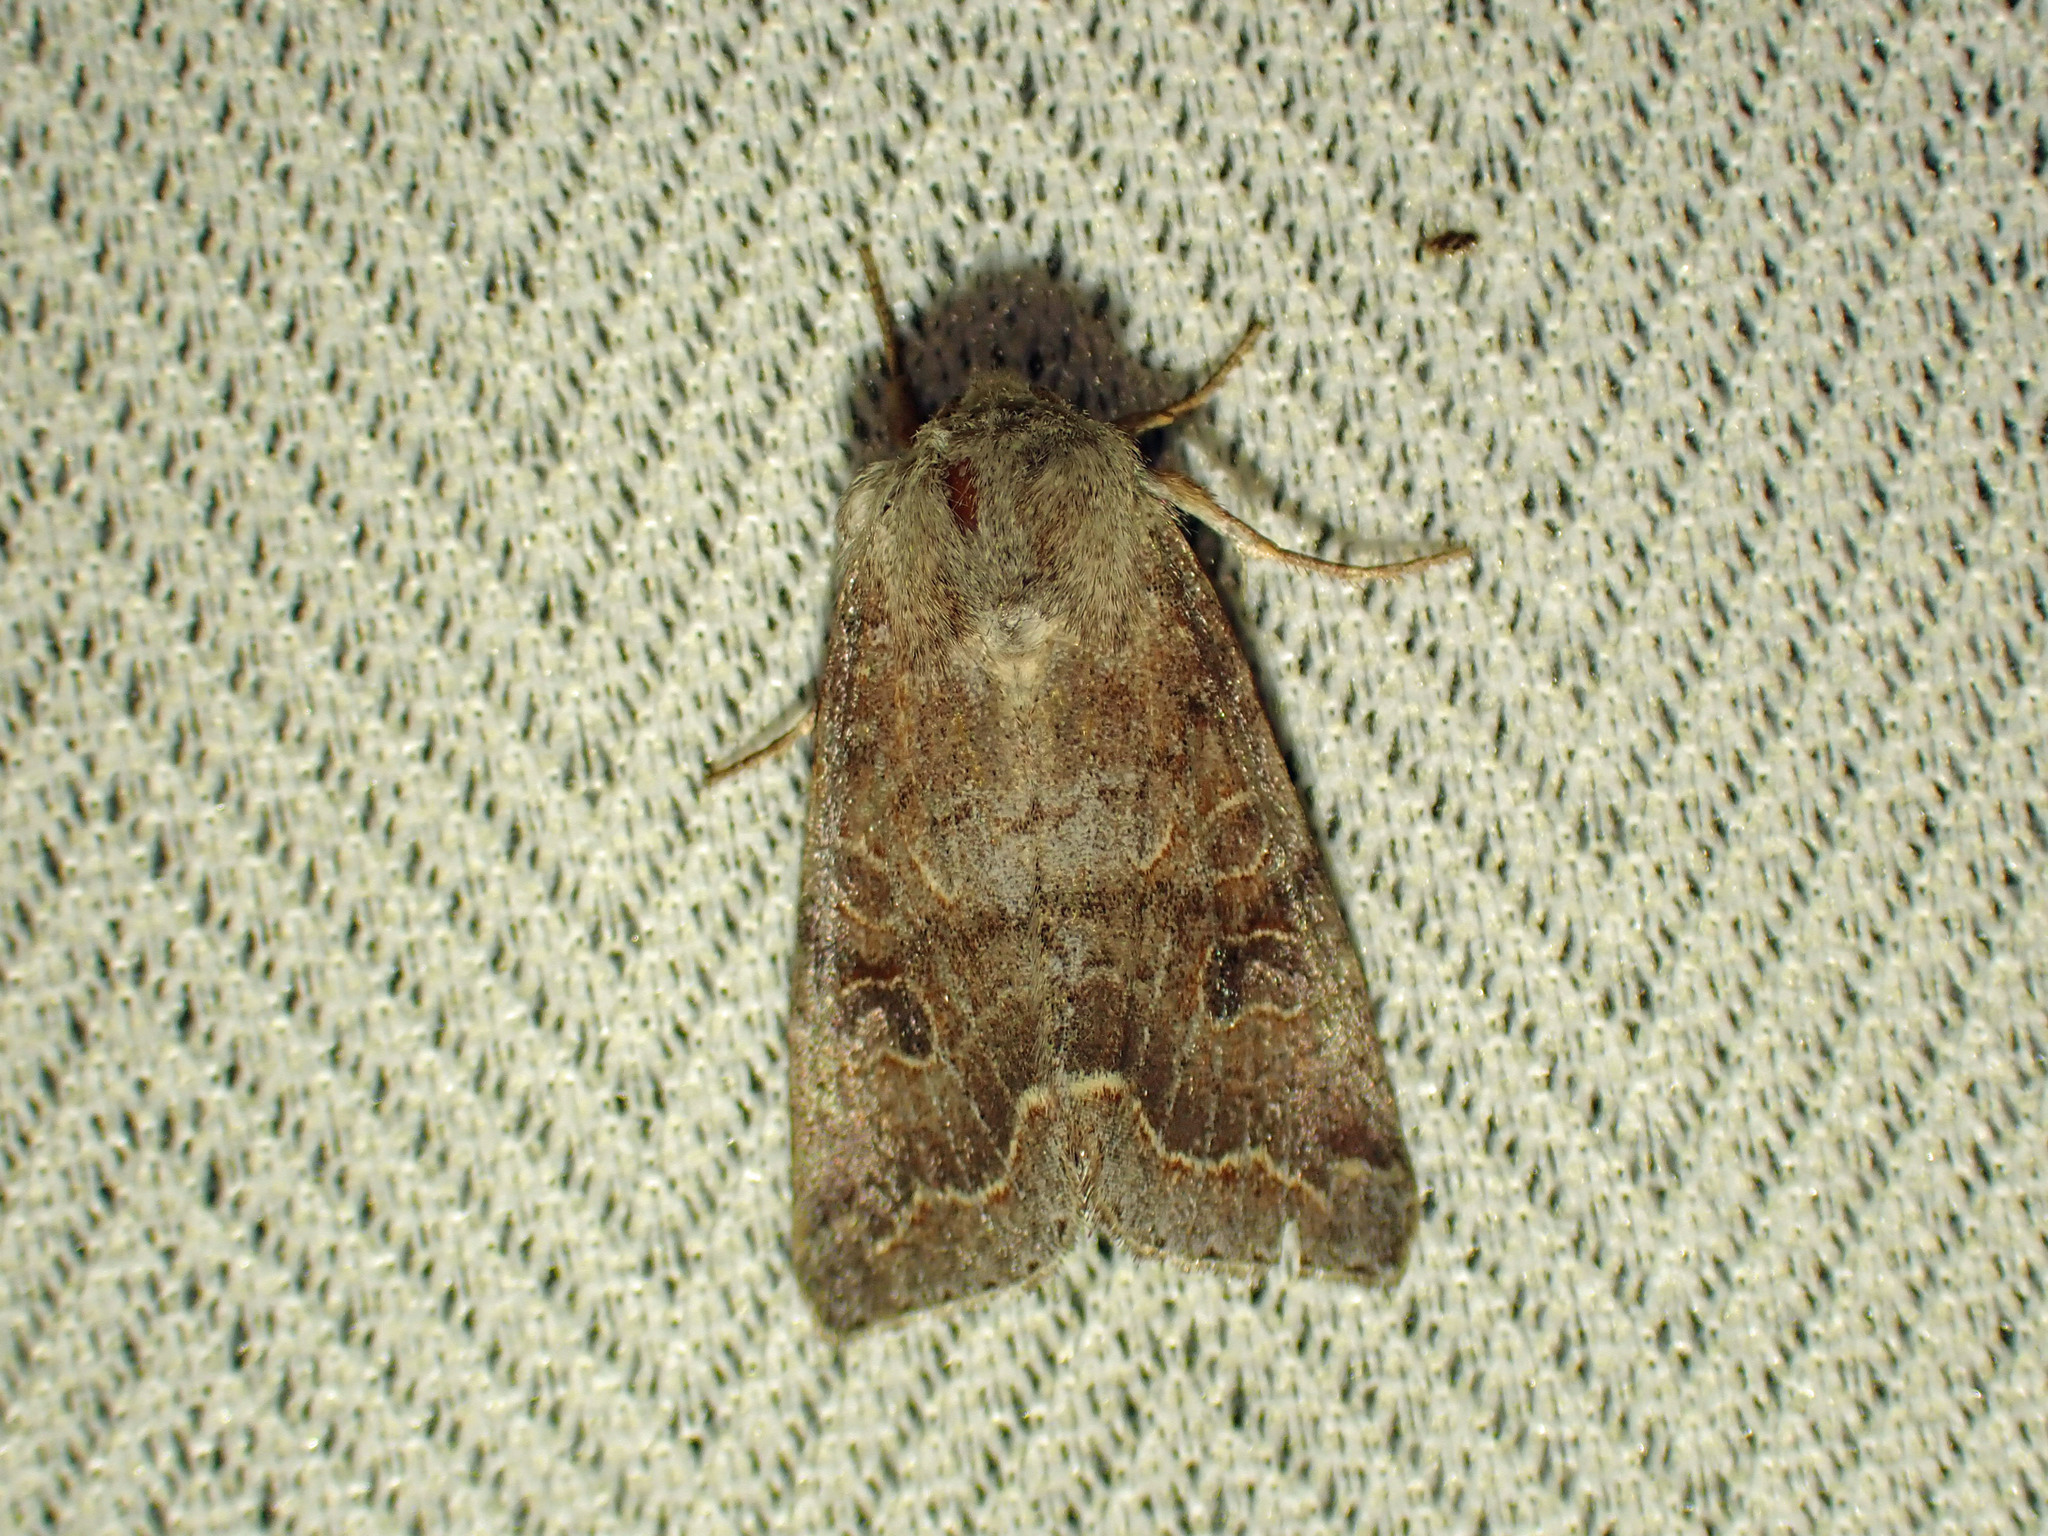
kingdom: Animalia
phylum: Arthropoda
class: Insecta
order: Lepidoptera
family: Noctuidae
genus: Orthosia
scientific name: Orthosia revicta
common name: Rusty whitesided caterpillar
